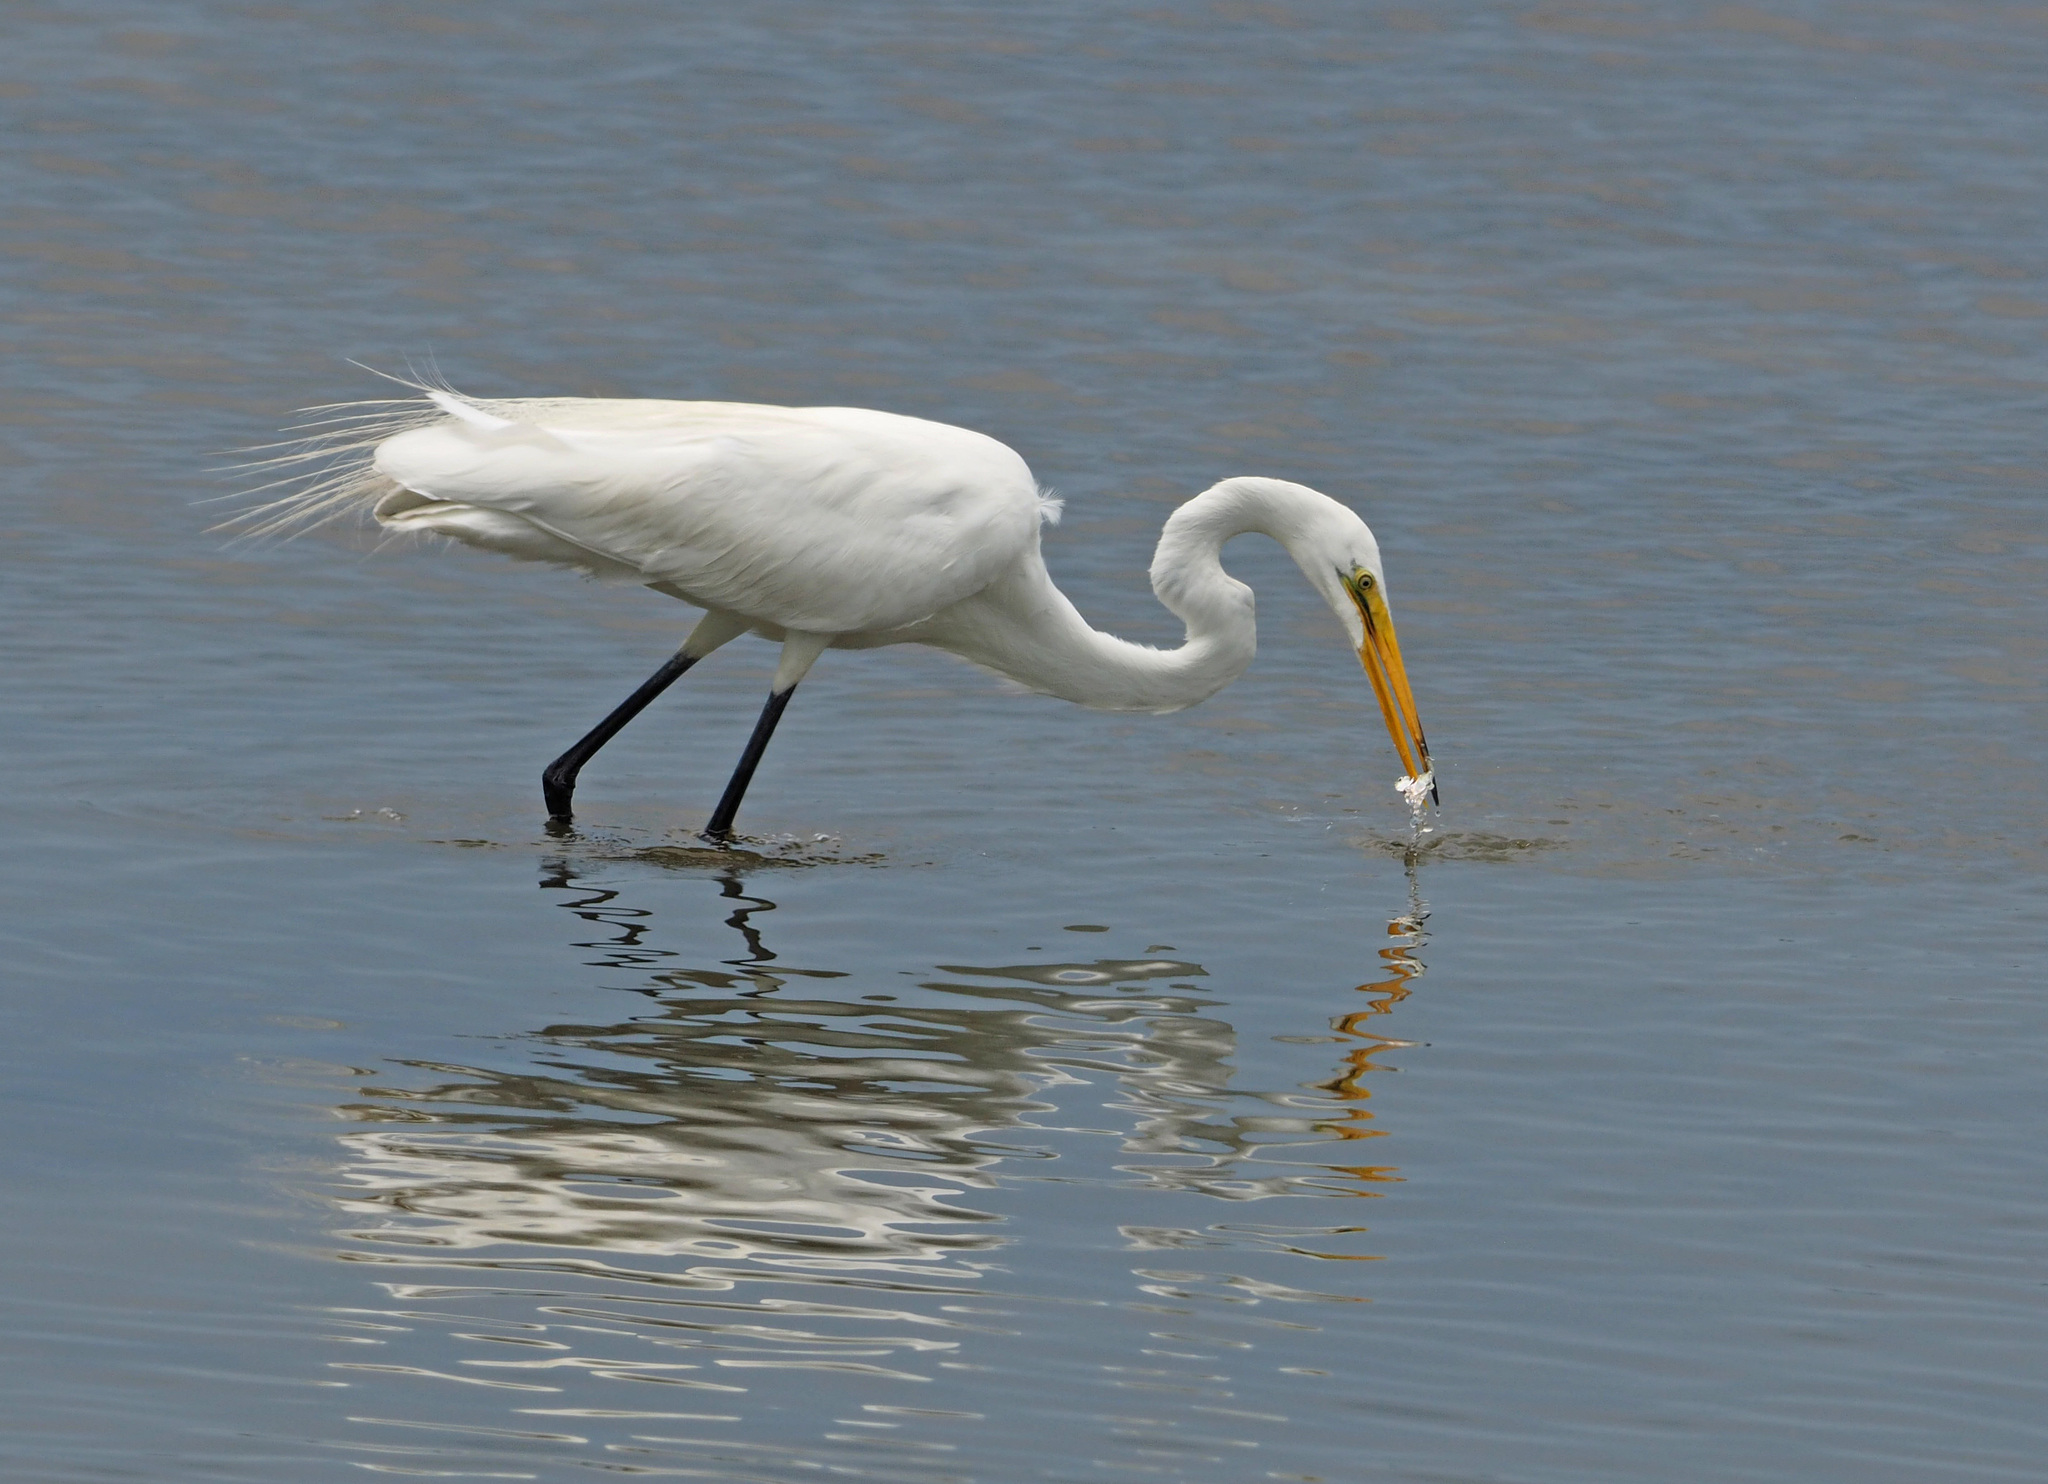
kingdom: Animalia
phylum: Chordata
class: Aves
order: Pelecaniformes
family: Ardeidae
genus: Ardea
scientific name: Ardea alba
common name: Great egret
